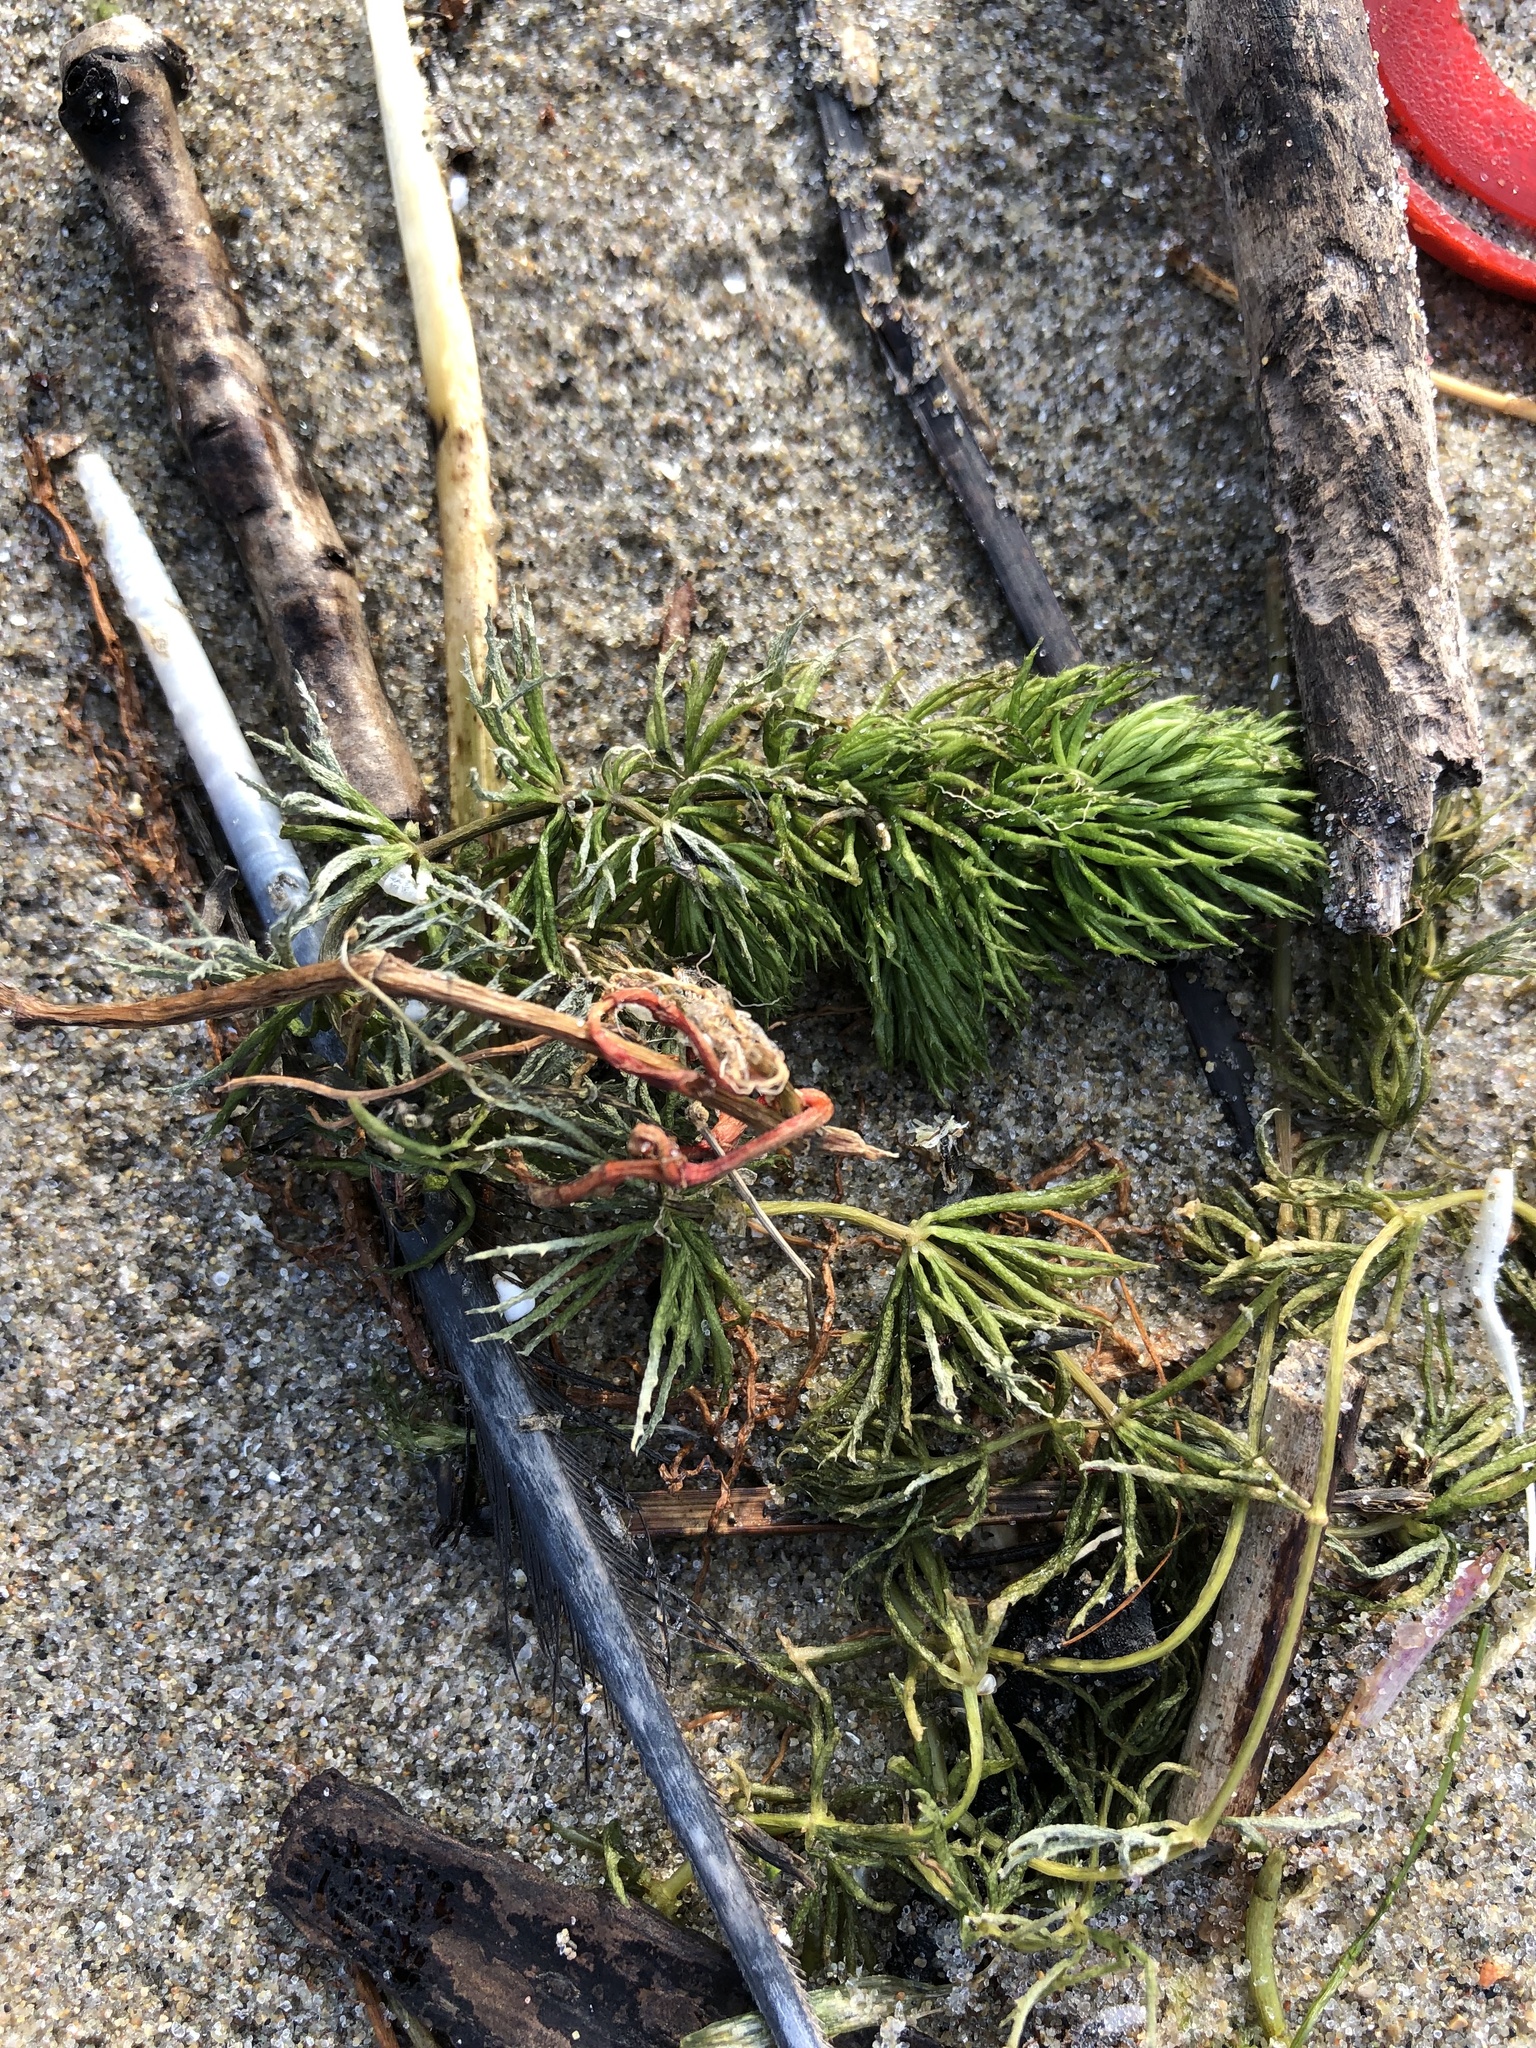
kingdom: Plantae
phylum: Tracheophyta
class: Magnoliopsida
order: Ceratophyllales
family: Ceratophyllaceae
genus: Ceratophyllum
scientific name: Ceratophyllum demersum
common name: Rigid hornwort
